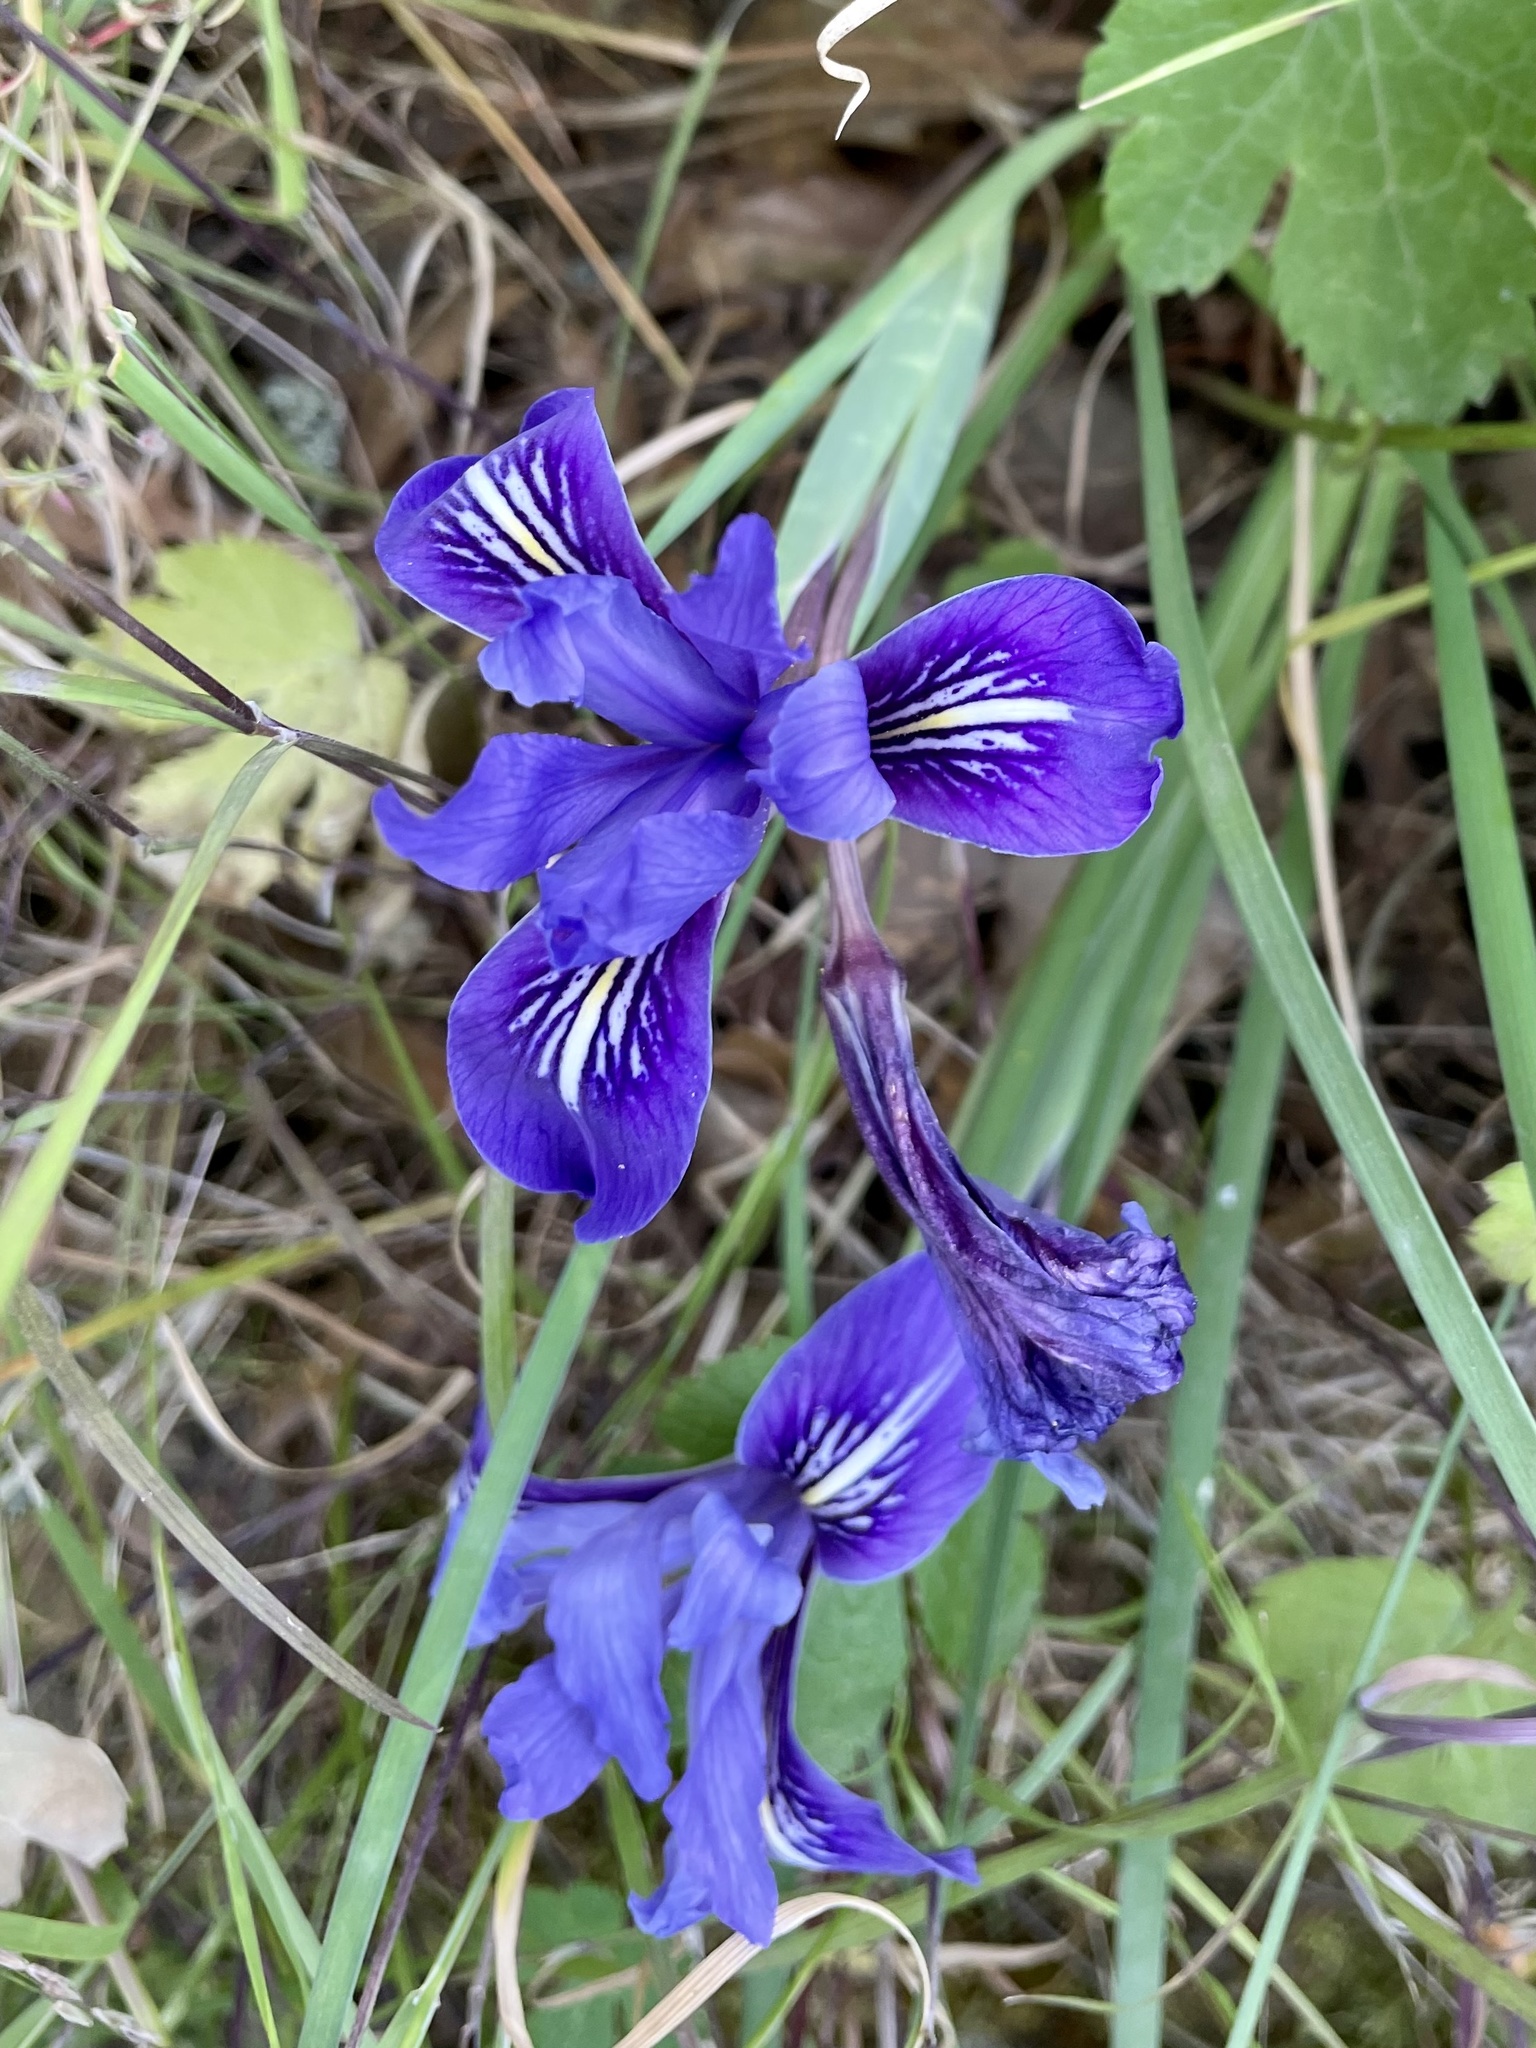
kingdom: Plantae
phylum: Tracheophyta
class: Liliopsida
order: Asparagales
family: Iridaceae
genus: Iris
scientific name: Iris macrosiphon
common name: Ground iris
